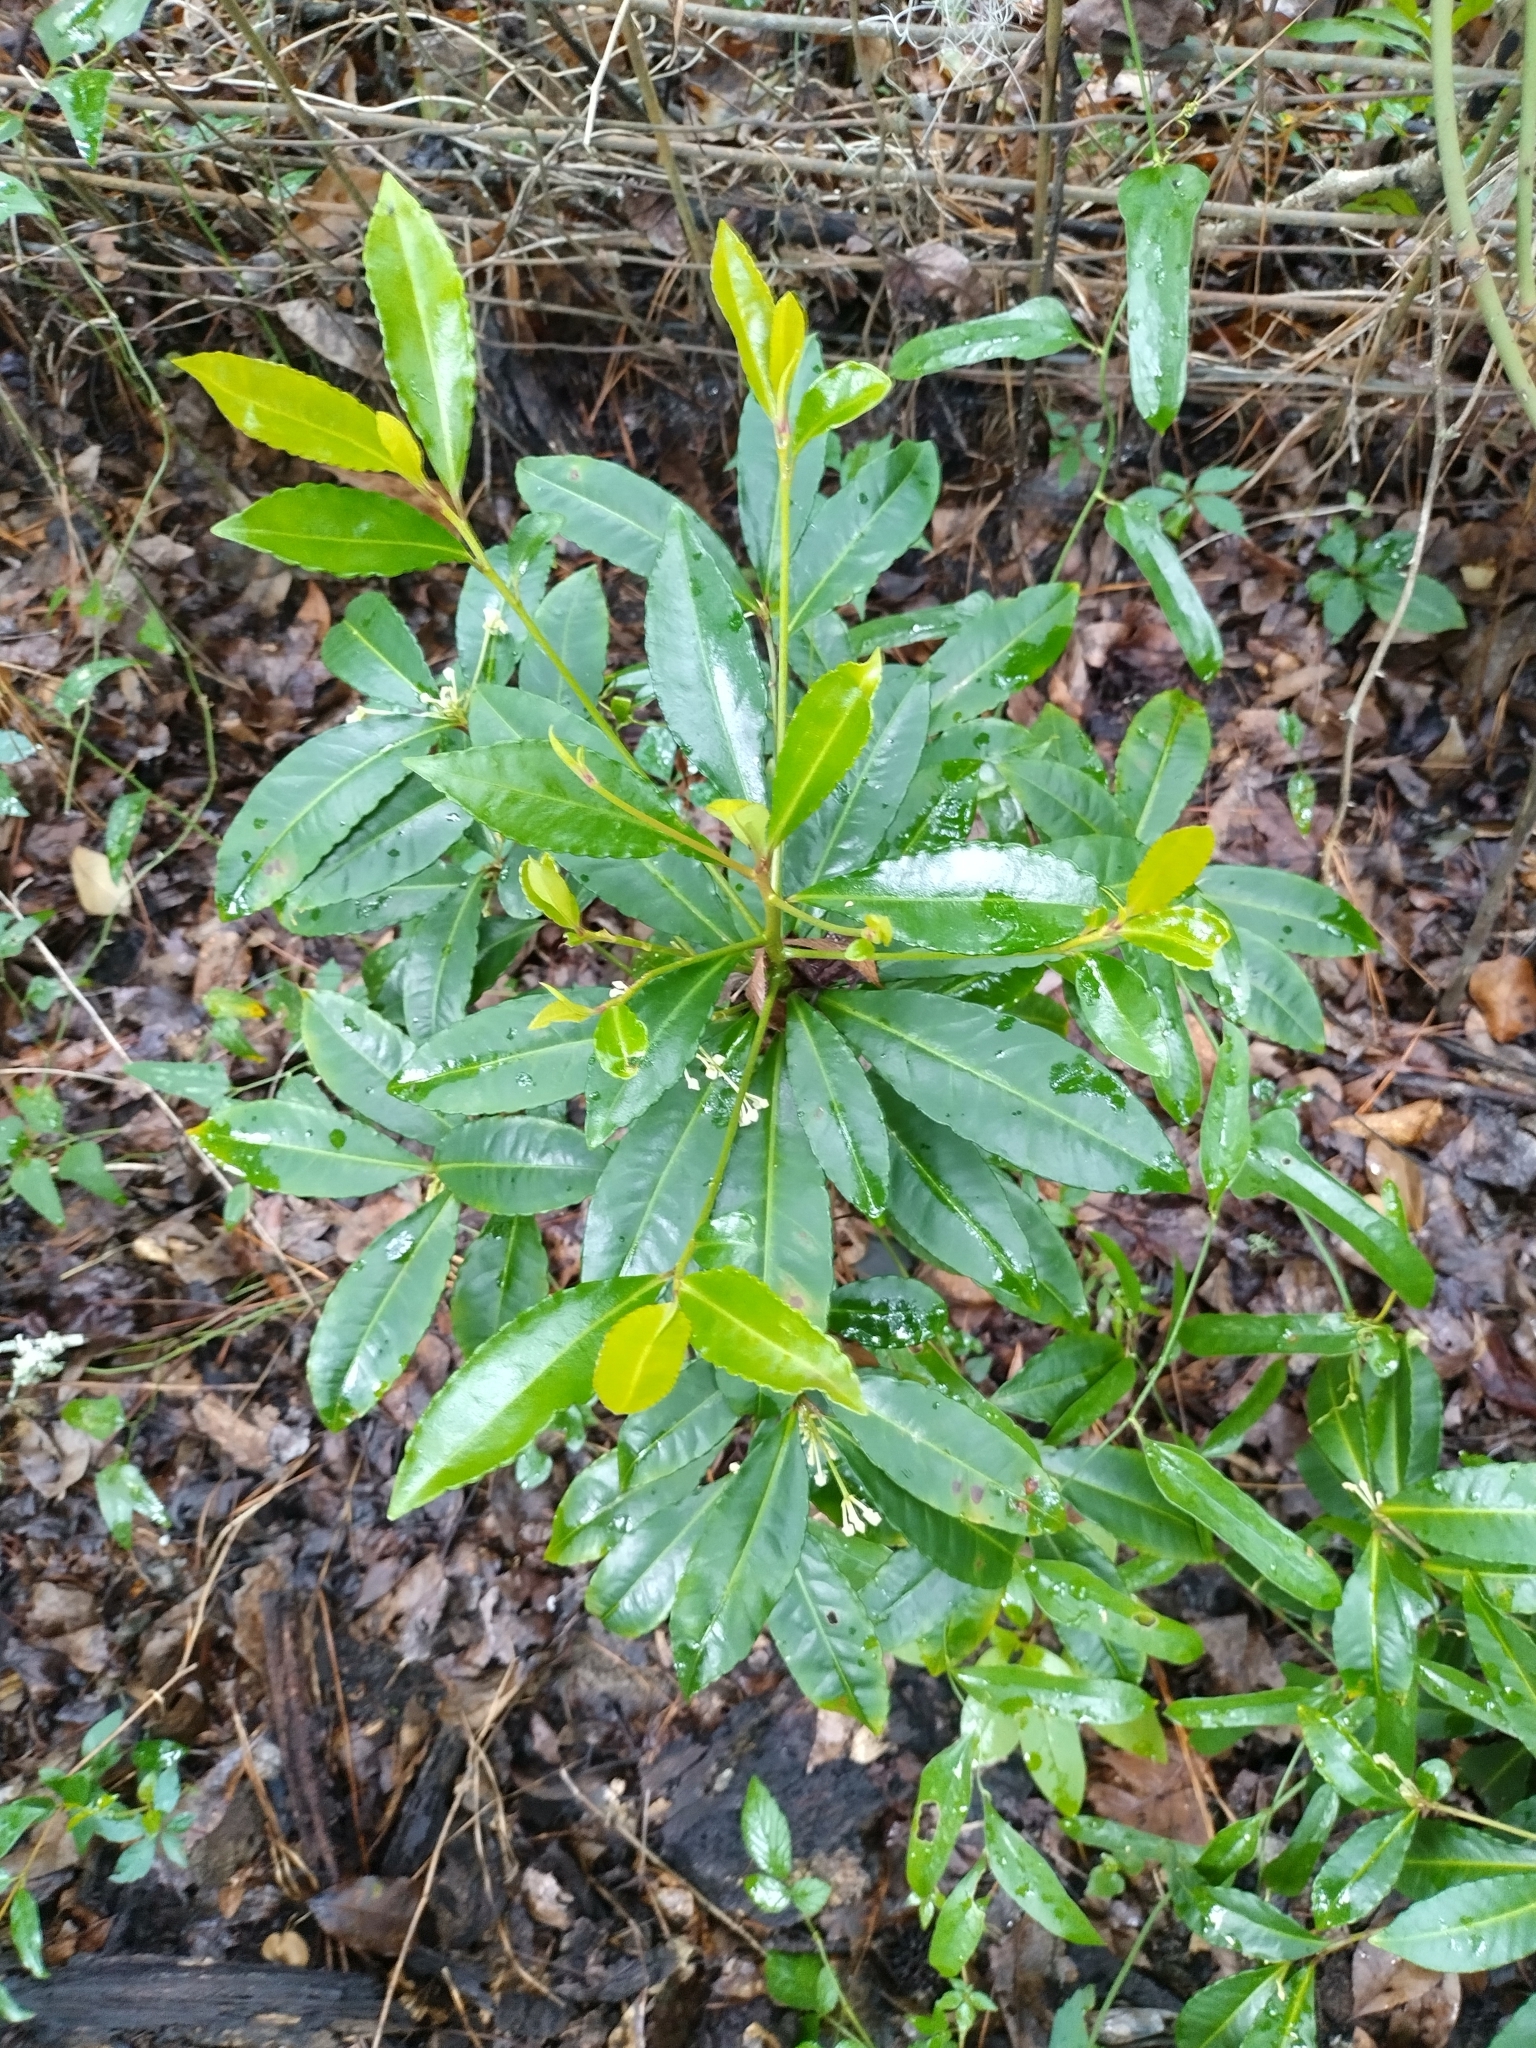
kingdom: Plantae
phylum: Tracheophyta
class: Magnoliopsida
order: Ericales
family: Primulaceae
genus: Ardisia
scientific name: Ardisia crenata
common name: Hen's eyes
